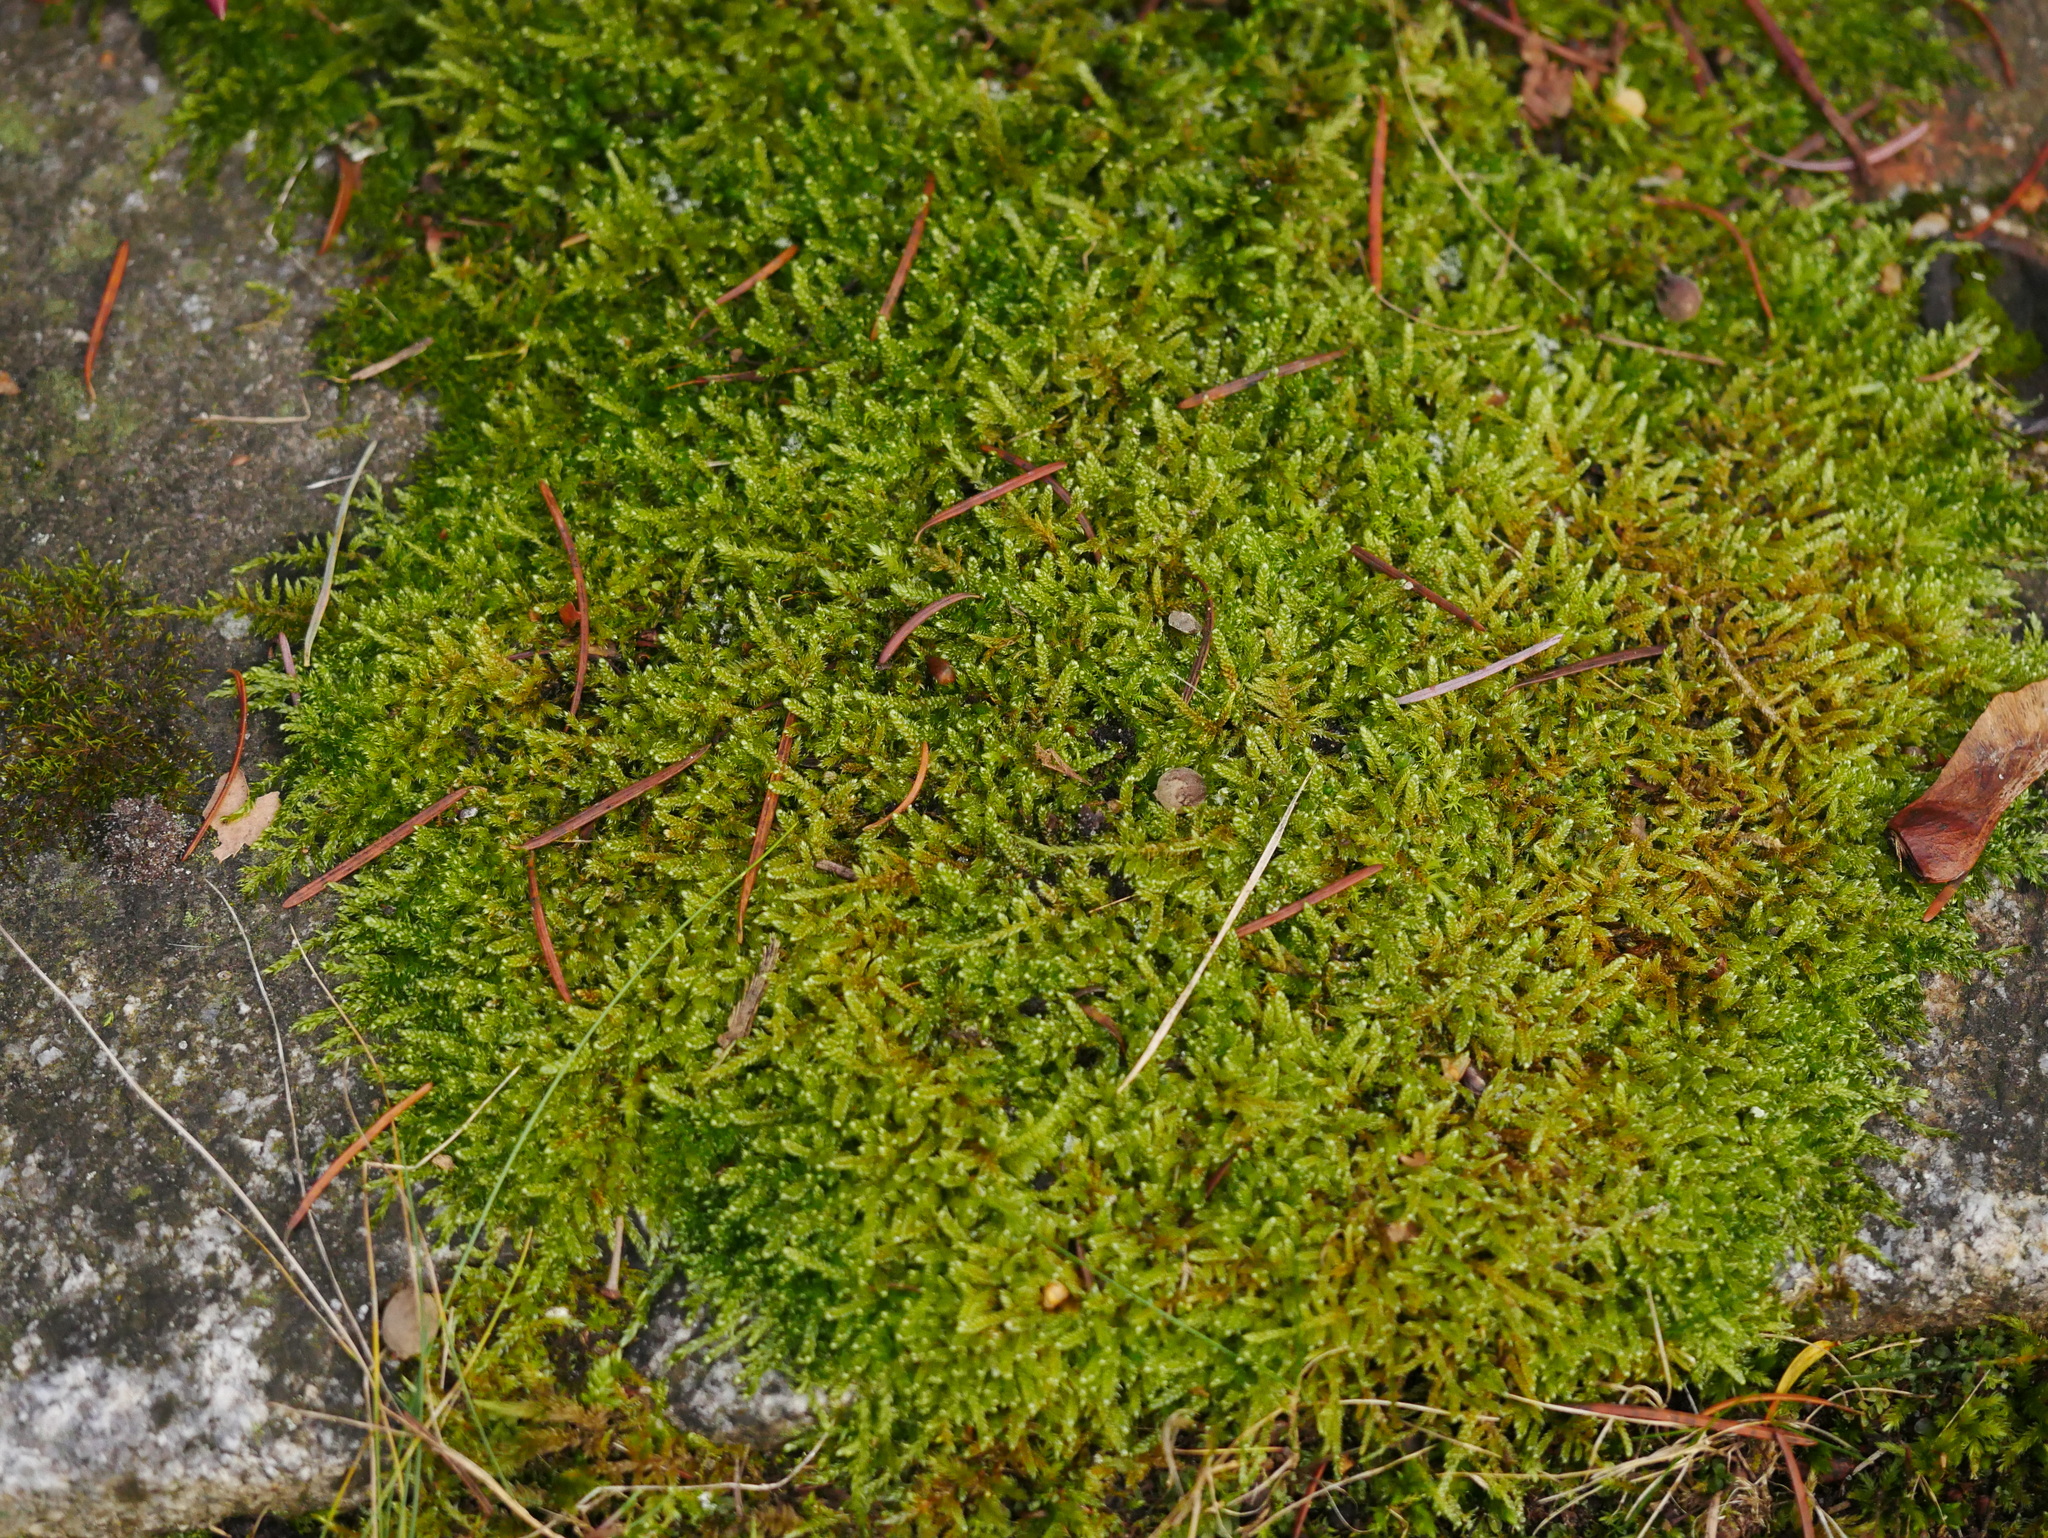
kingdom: Plantae
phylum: Bryophyta
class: Bryopsida
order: Hypnales
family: Hypnaceae
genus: Hypnum
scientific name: Hypnum cupressiforme
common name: Cypress-leaved plait-moss
